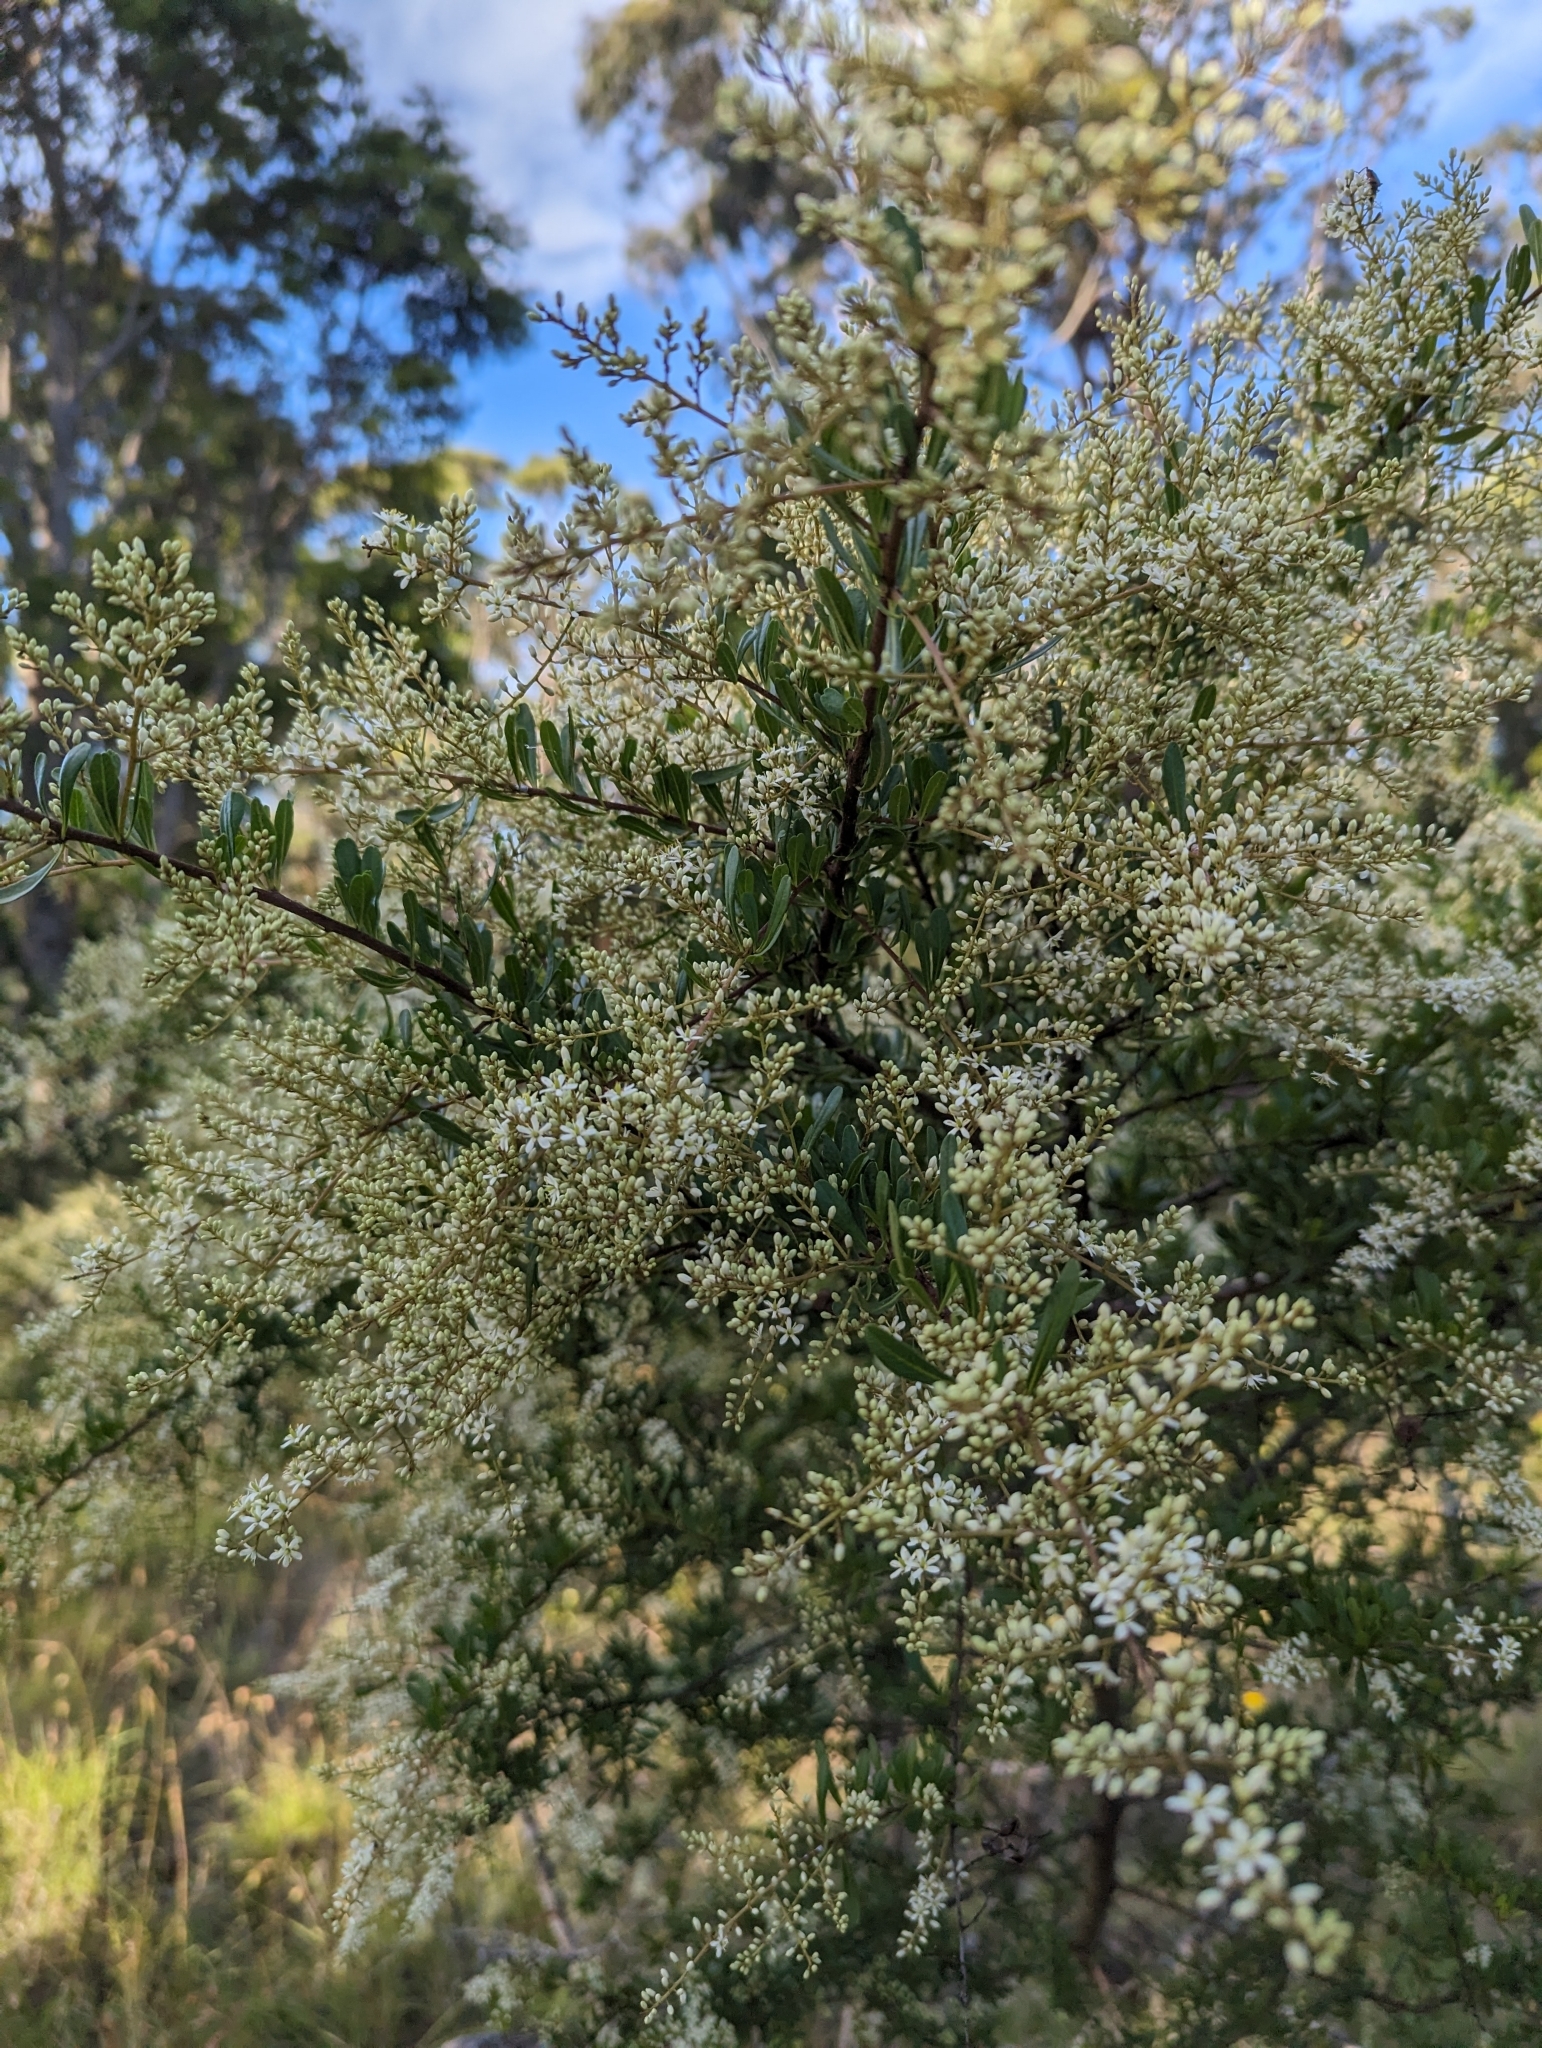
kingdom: Plantae
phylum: Tracheophyta
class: Magnoliopsida
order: Apiales
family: Pittosporaceae
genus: Bursaria
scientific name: Bursaria spinosa
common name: Australian blackthorn
